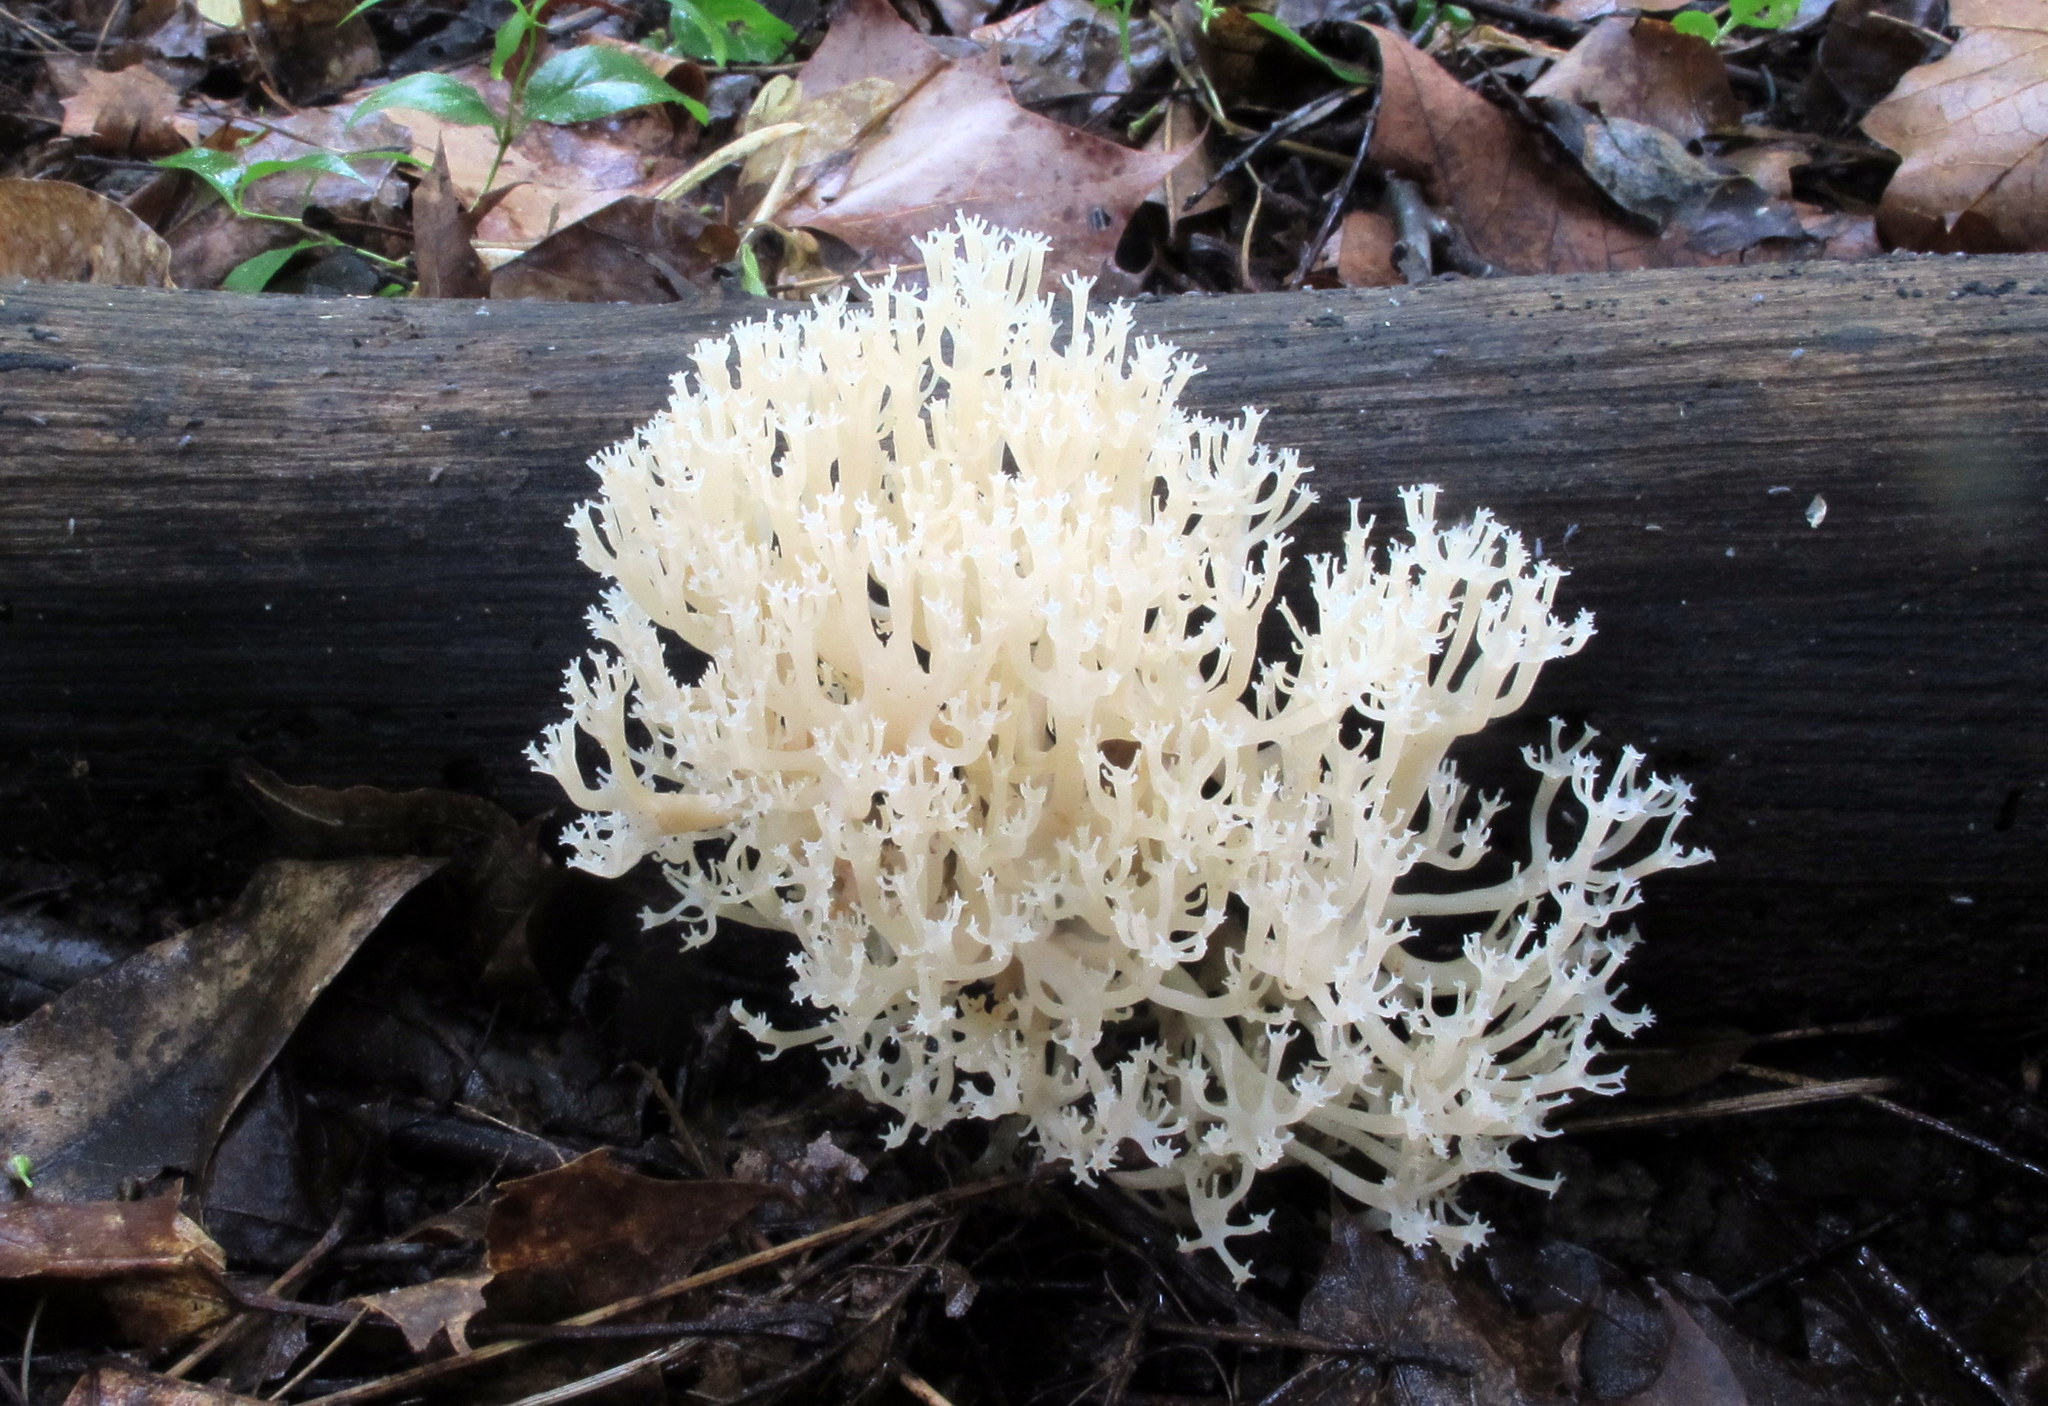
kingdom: Fungi
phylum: Basidiomycota
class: Agaricomycetes
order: Russulales
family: Auriscalpiaceae
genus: Artomyces
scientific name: Artomyces pyxidatus
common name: Crown-tipped coral fungus
